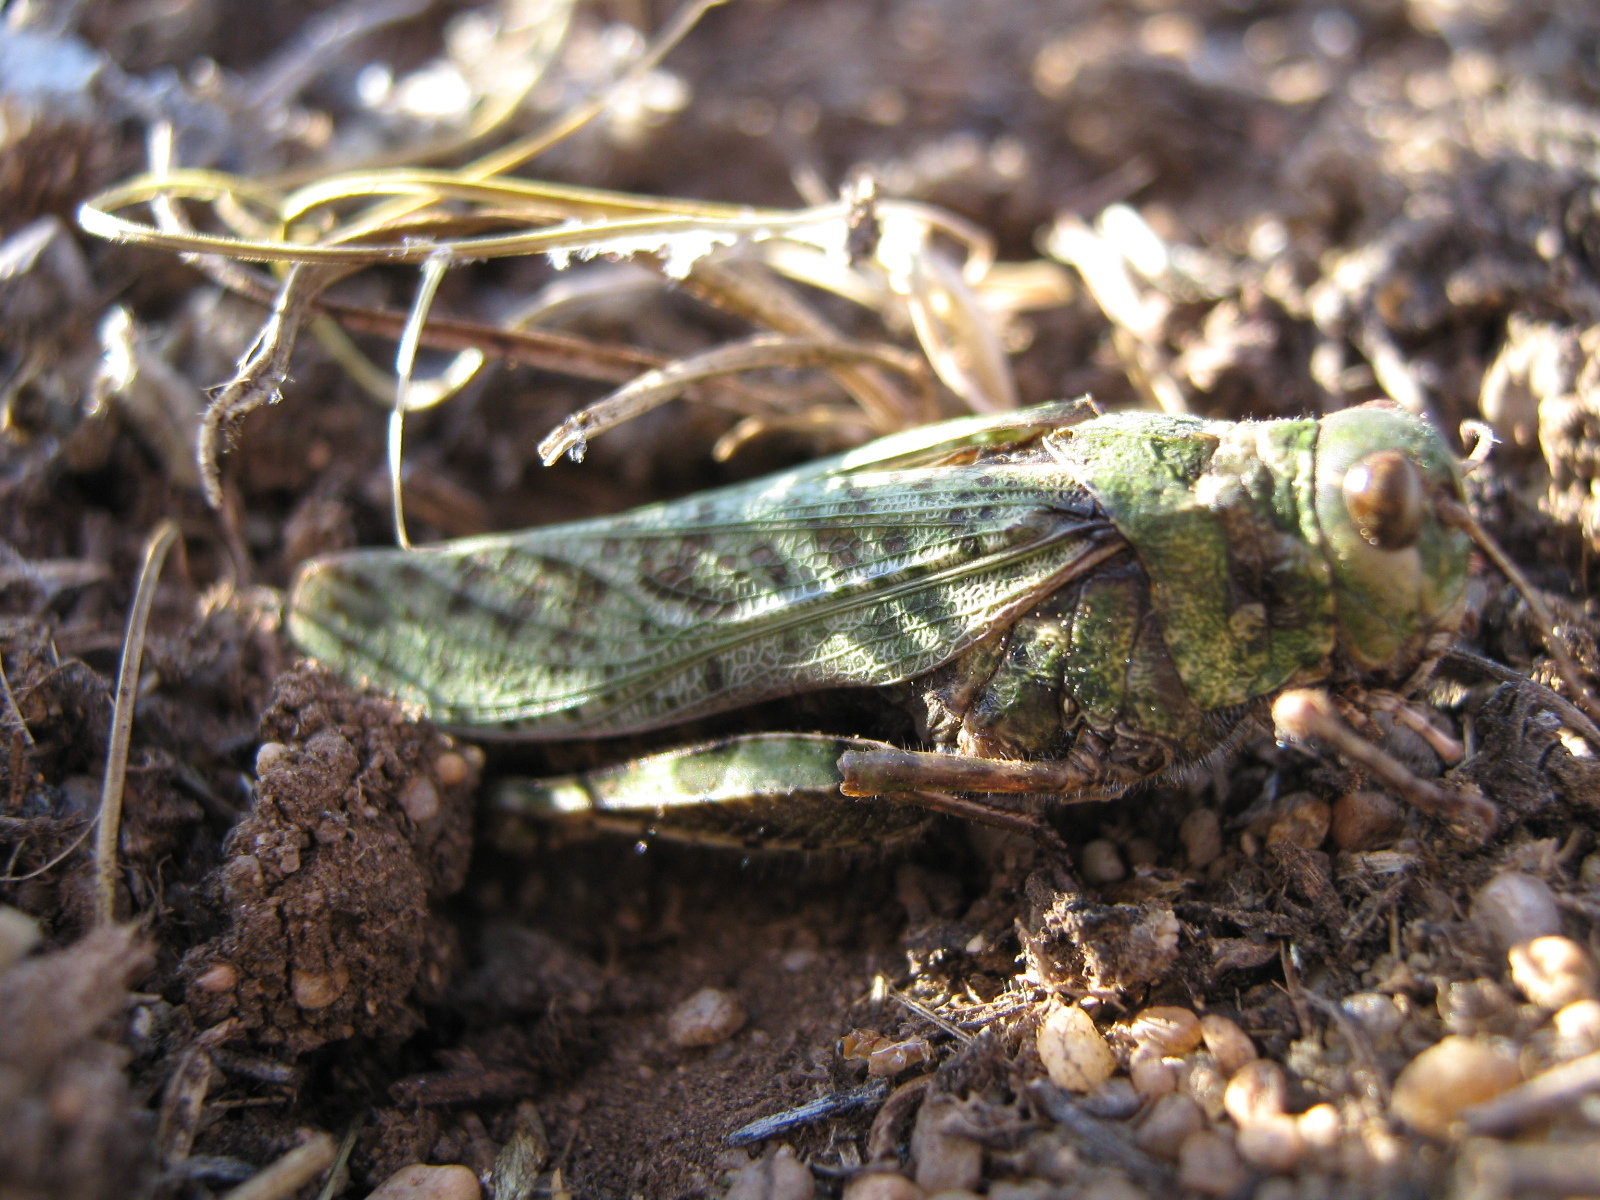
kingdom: Animalia
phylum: Arthropoda
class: Insecta
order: Orthoptera
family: Acrididae
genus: Angaracris
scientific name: Angaracris barabensis
